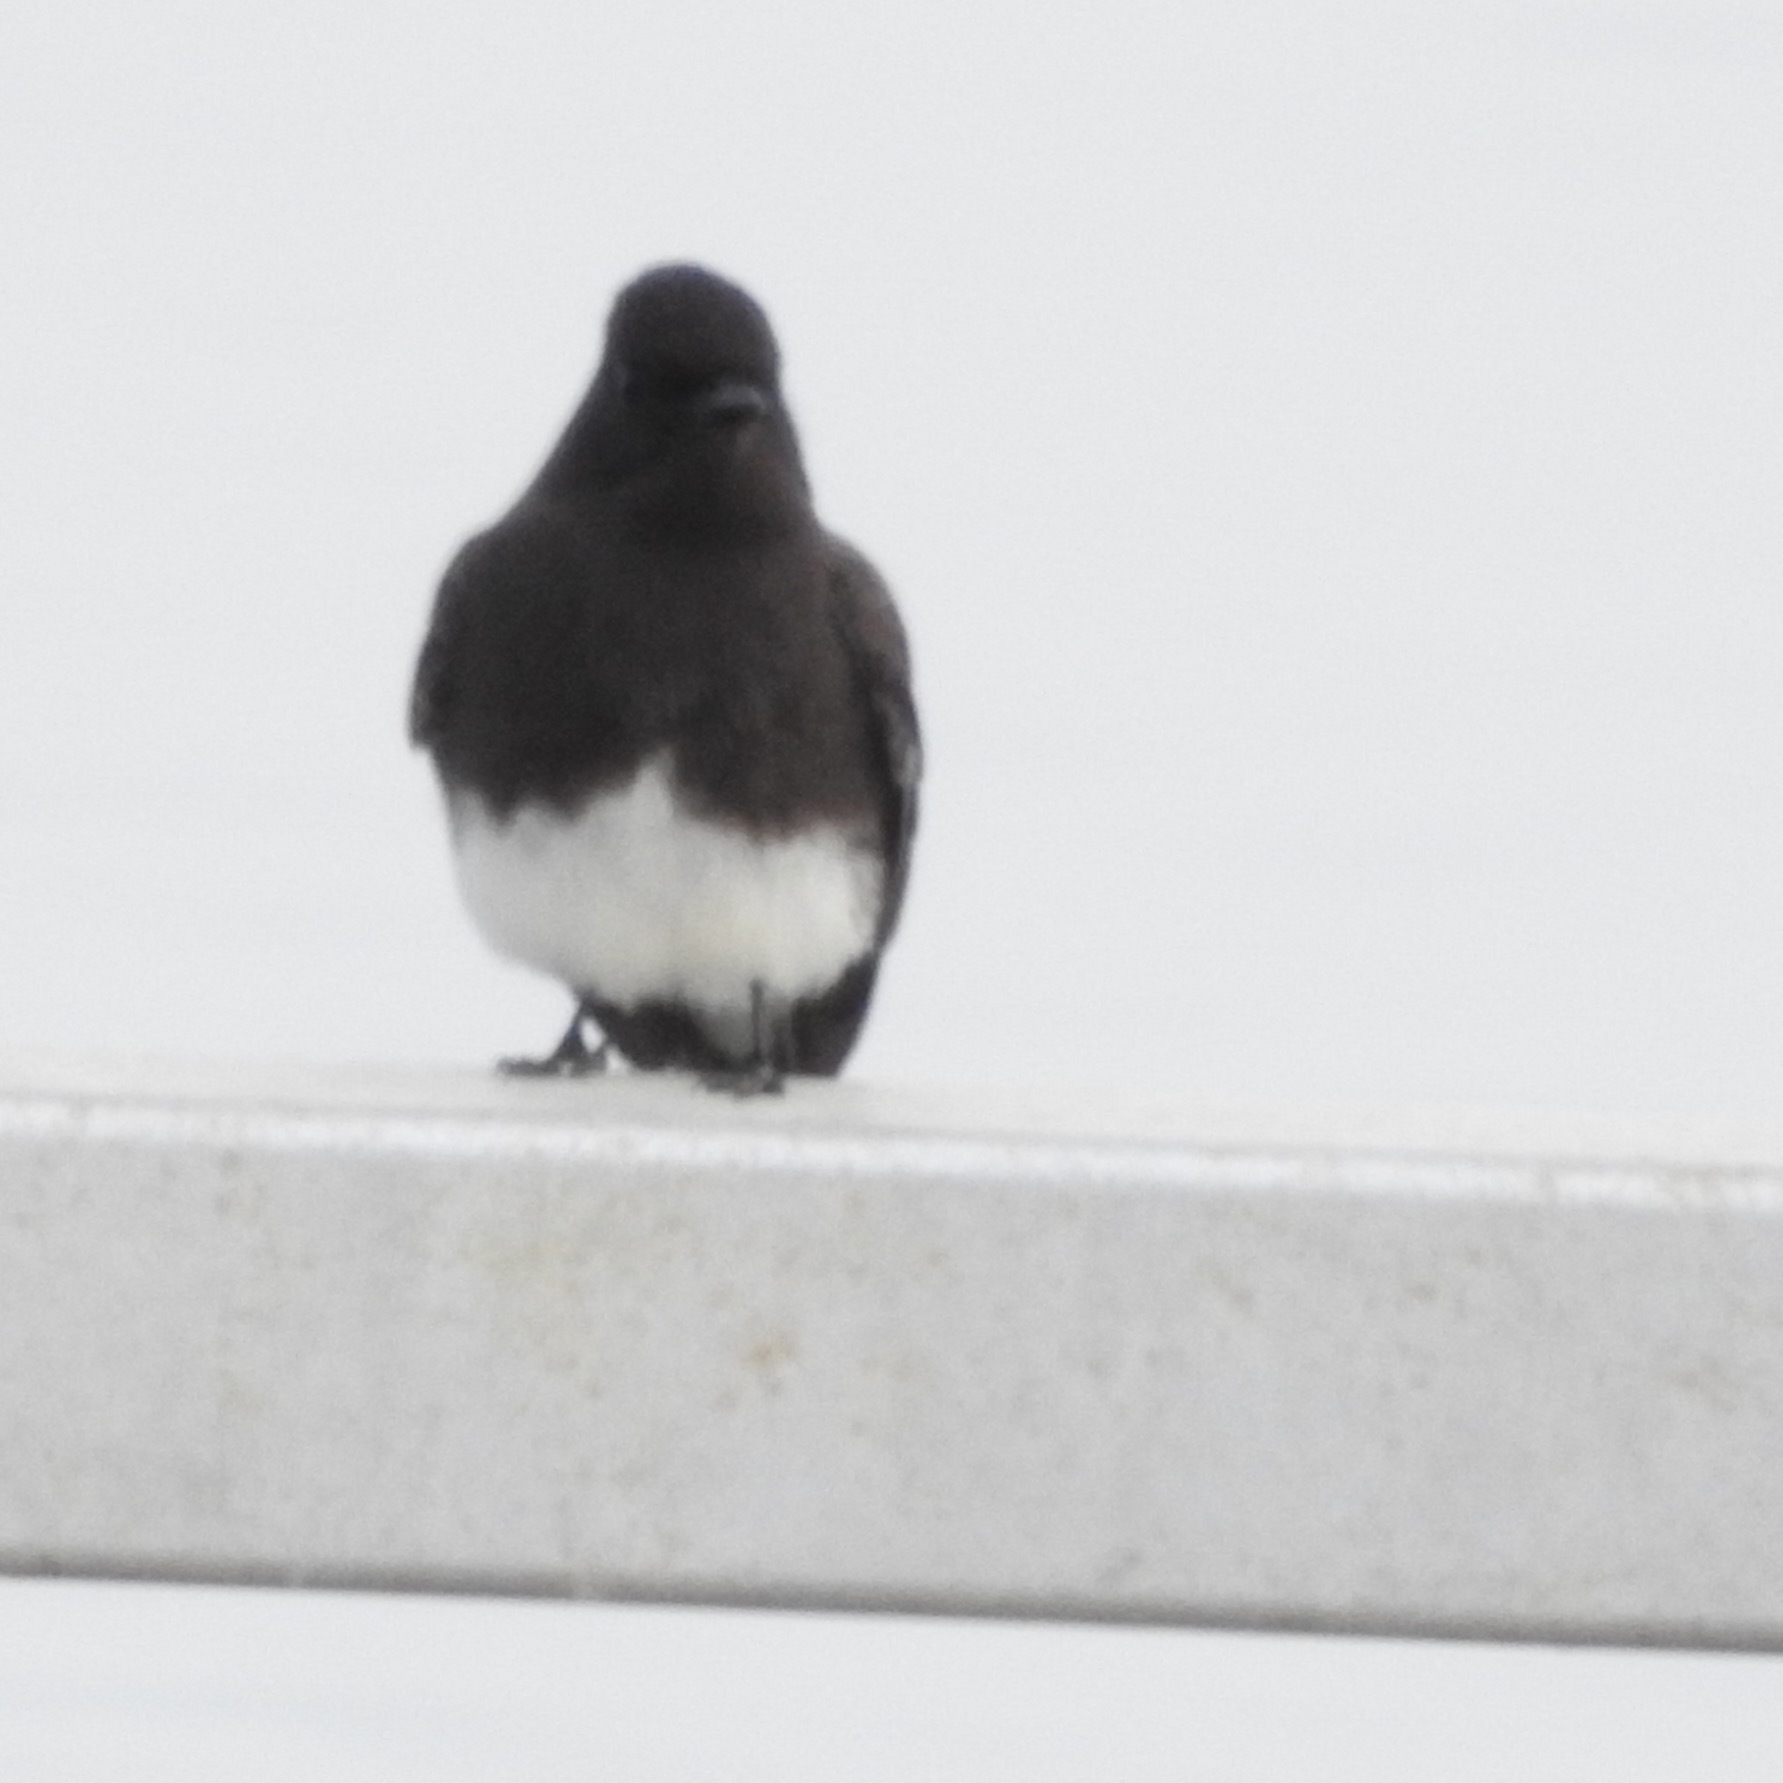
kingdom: Animalia
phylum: Chordata
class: Aves
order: Passeriformes
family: Tyrannidae
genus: Sayornis
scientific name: Sayornis nigricans
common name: Black phoebe
